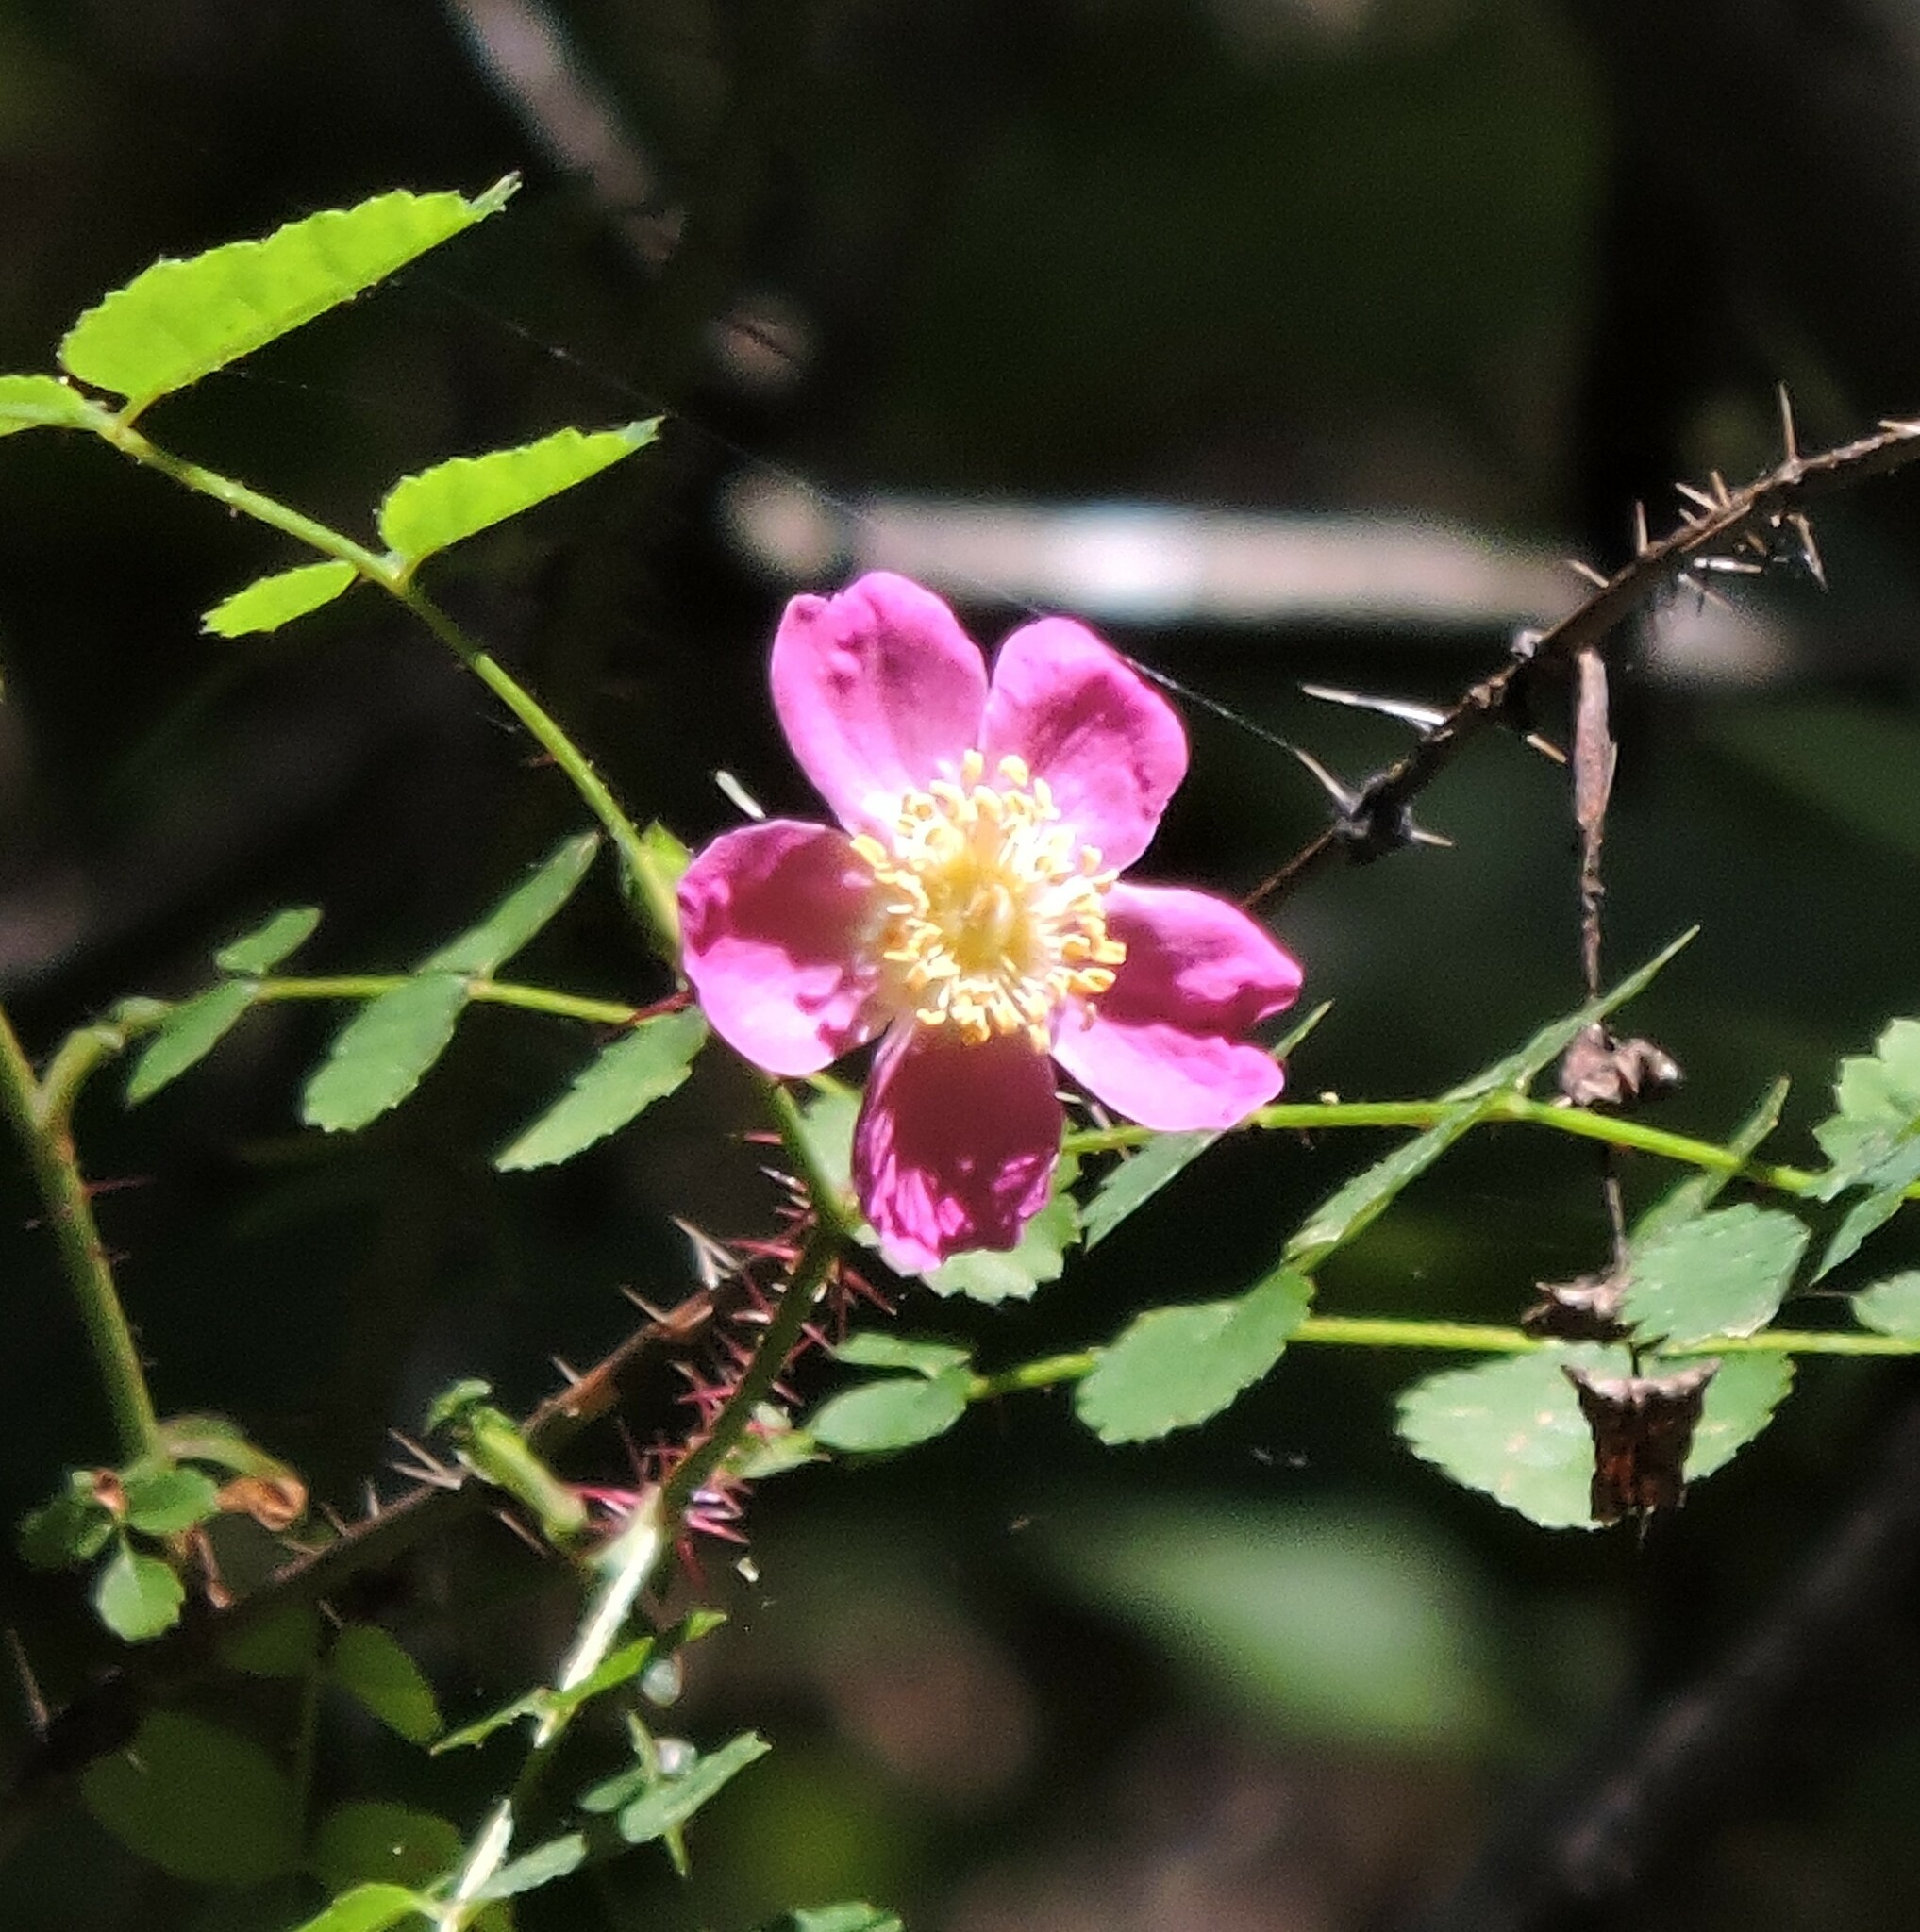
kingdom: Plantae
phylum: Tracheophyta
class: Magnoliopsida
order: Rosales
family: Rosaceae
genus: Rosa
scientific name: Rosa californica
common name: California rose
